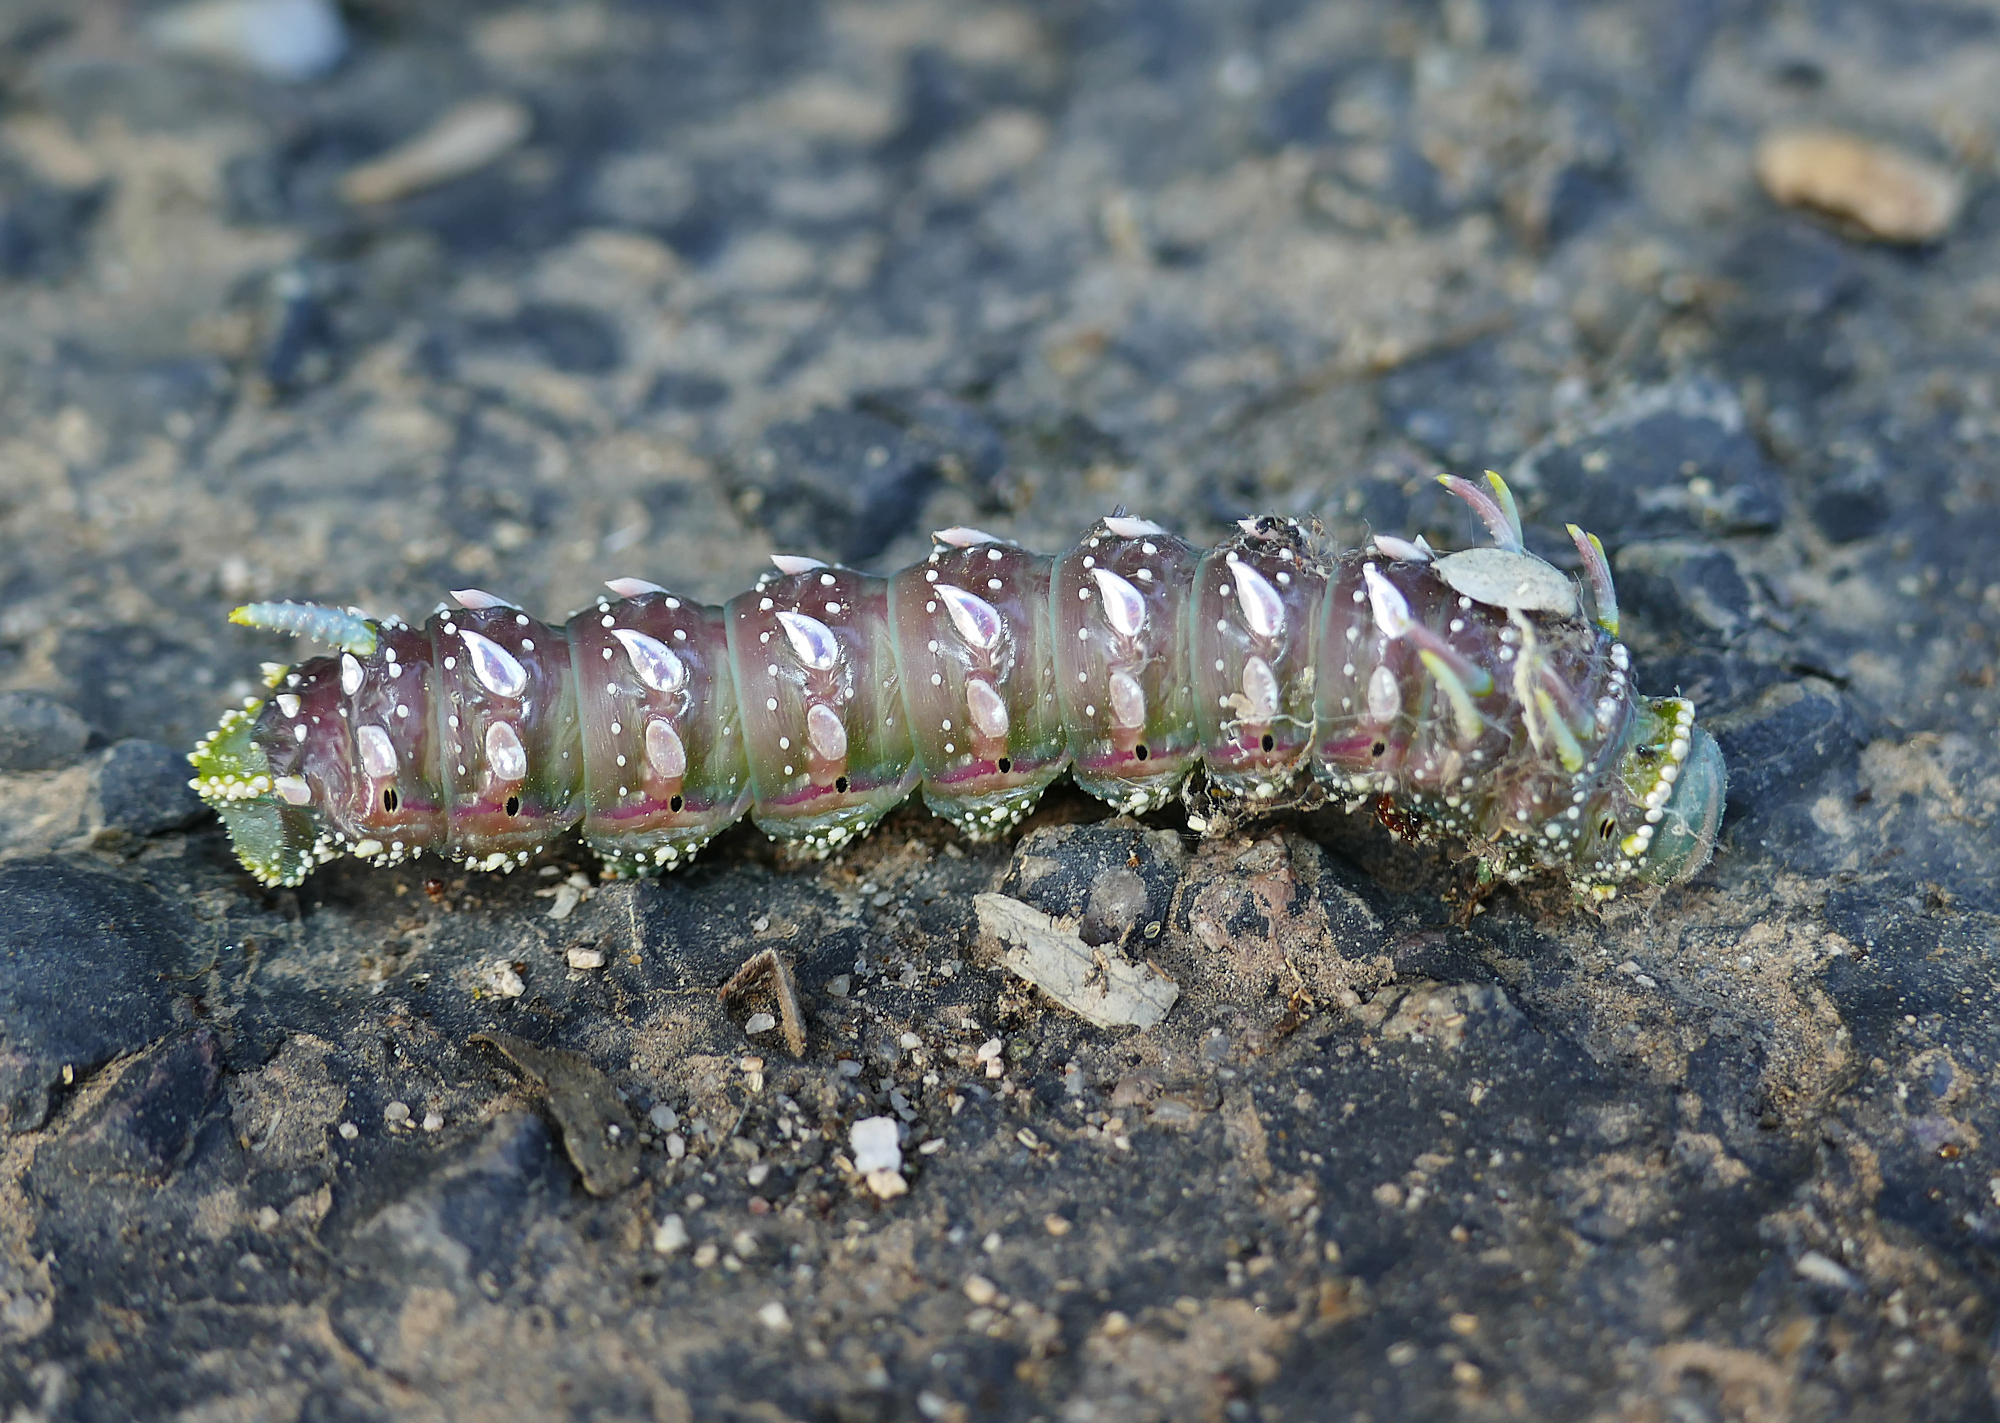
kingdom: Animalia
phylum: Arthropoda
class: Insecta
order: Lepidoptera
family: Saturniidae
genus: Syssphinx
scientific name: Syssphinx hubbardi
